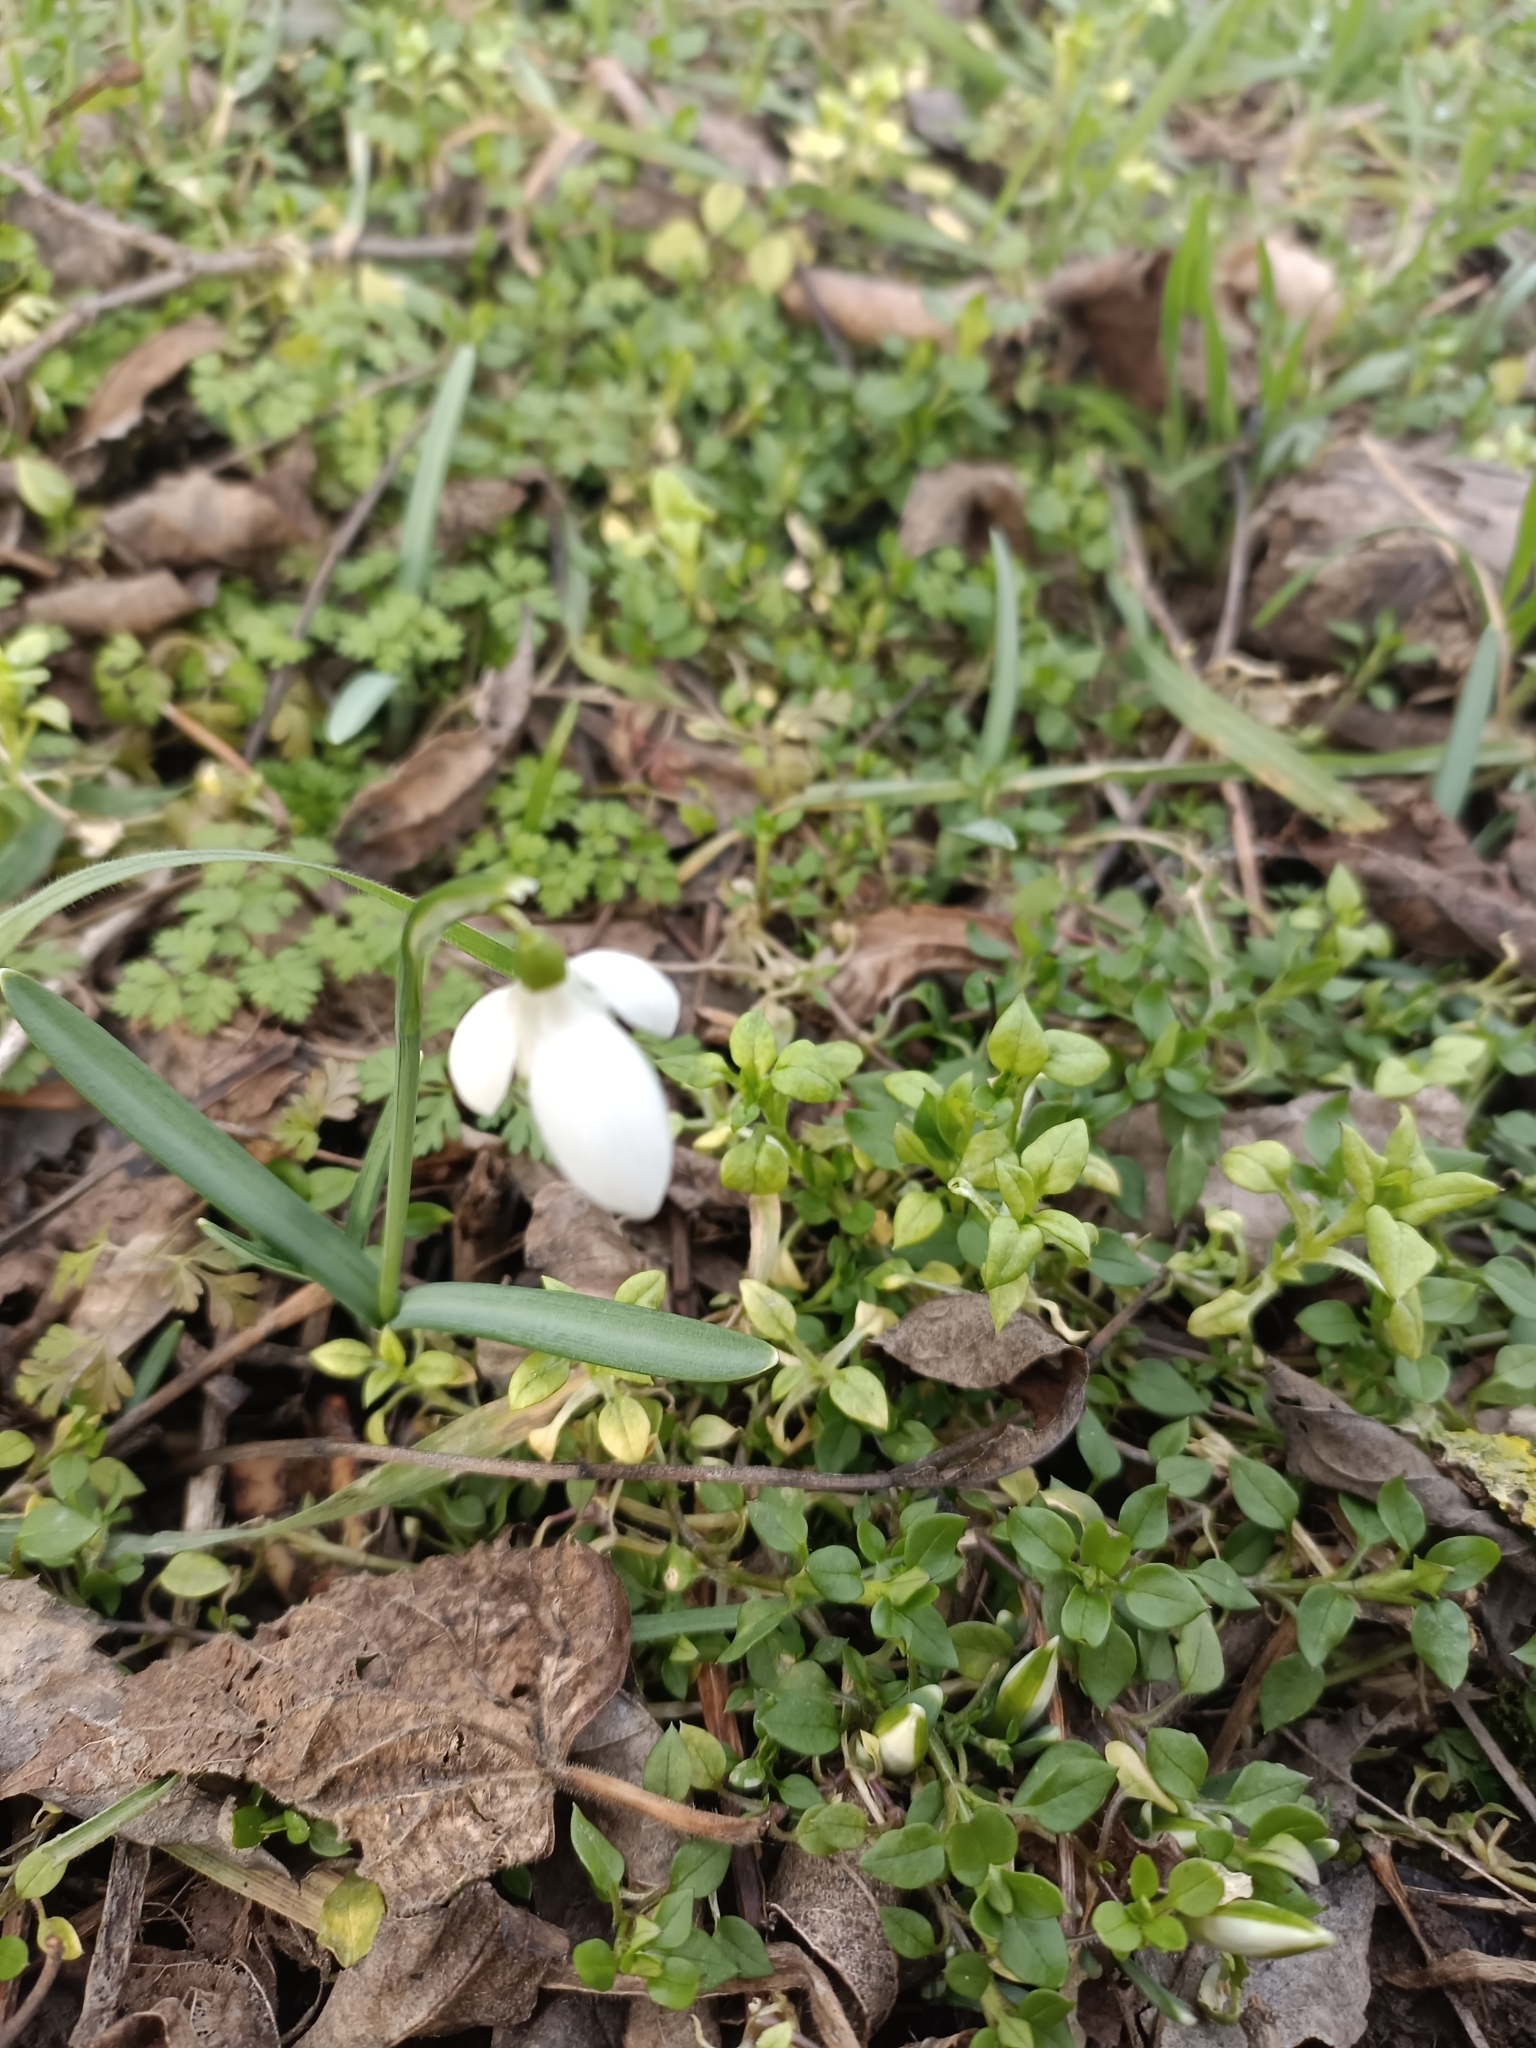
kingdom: Plantae
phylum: Tracheophyta
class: Liliopsida
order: Asparagales
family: Amaryllidaceae
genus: Galanthus
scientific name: Galanthus nivalis
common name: Snowdrop
